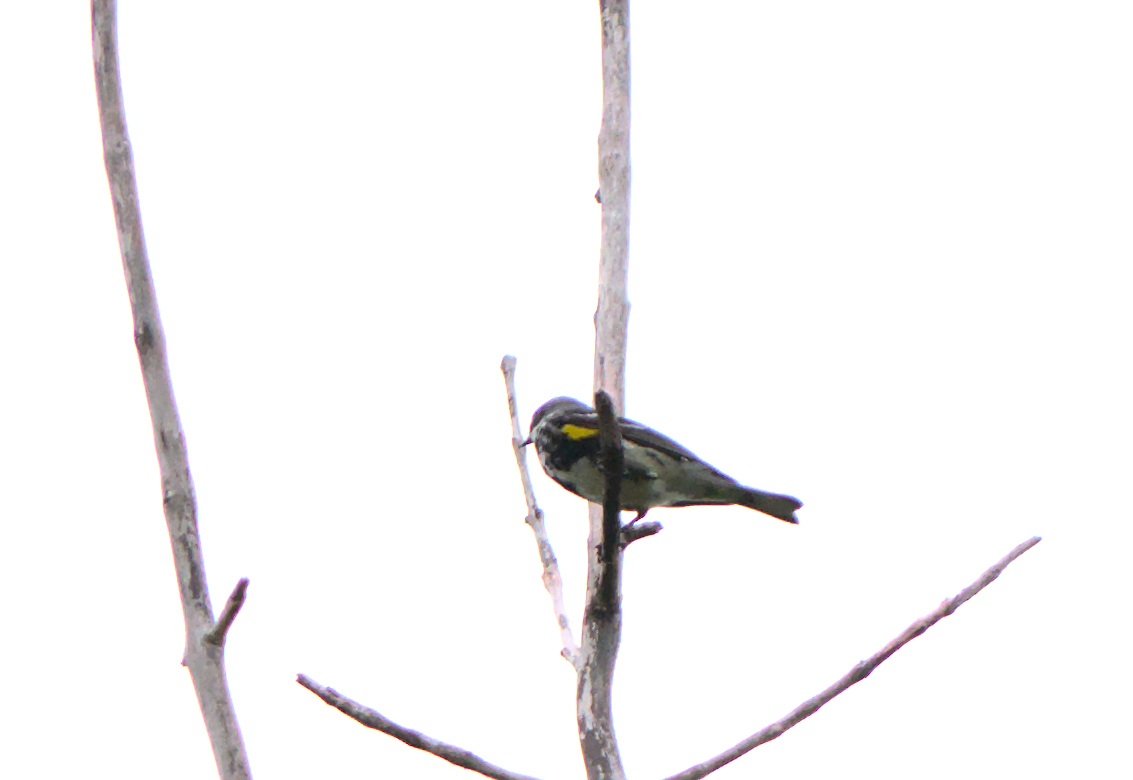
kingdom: Animalia
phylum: Chordata
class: Aves
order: Passeriformes
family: Parulidae
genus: Setophaga
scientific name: Setophaga coronata
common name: Myrtle warbler
